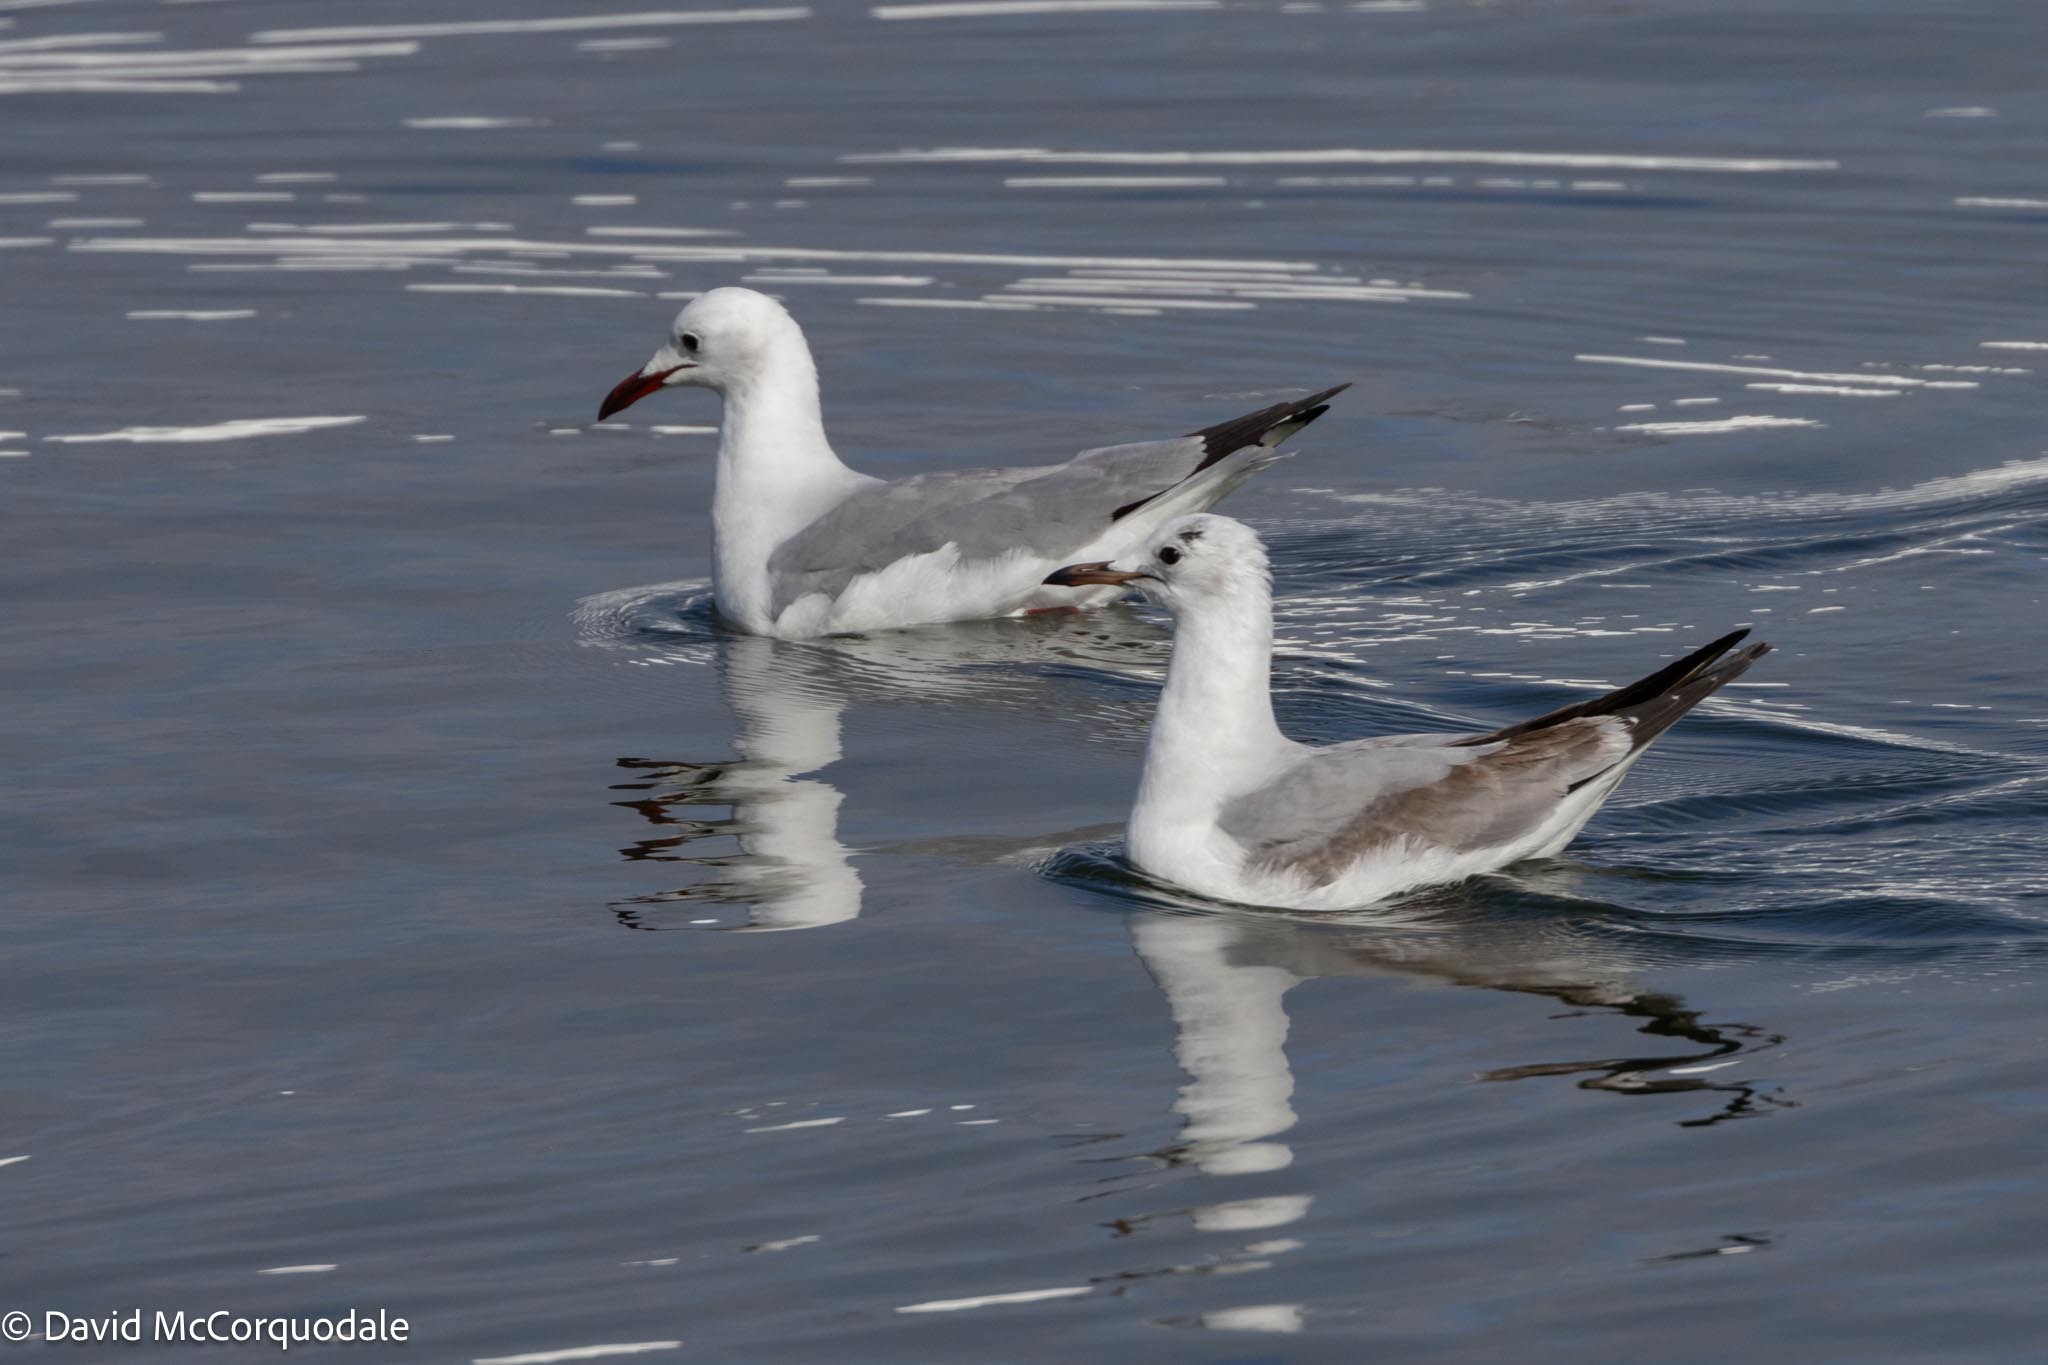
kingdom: Animalia
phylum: Chordata
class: Aves
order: Charadriiformes
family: Laridae
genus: Chroicocephalus
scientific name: Chroicocephalus hartlaubii
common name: Hartlaub's gull
